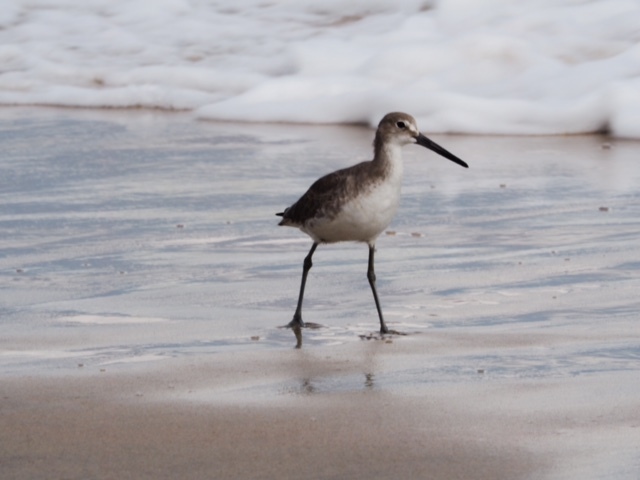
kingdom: Animalia
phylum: Chordata
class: Aves
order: Charadriiformes
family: Scolopacidae
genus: Tringa
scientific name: Tringa semipalmata
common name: Willet
